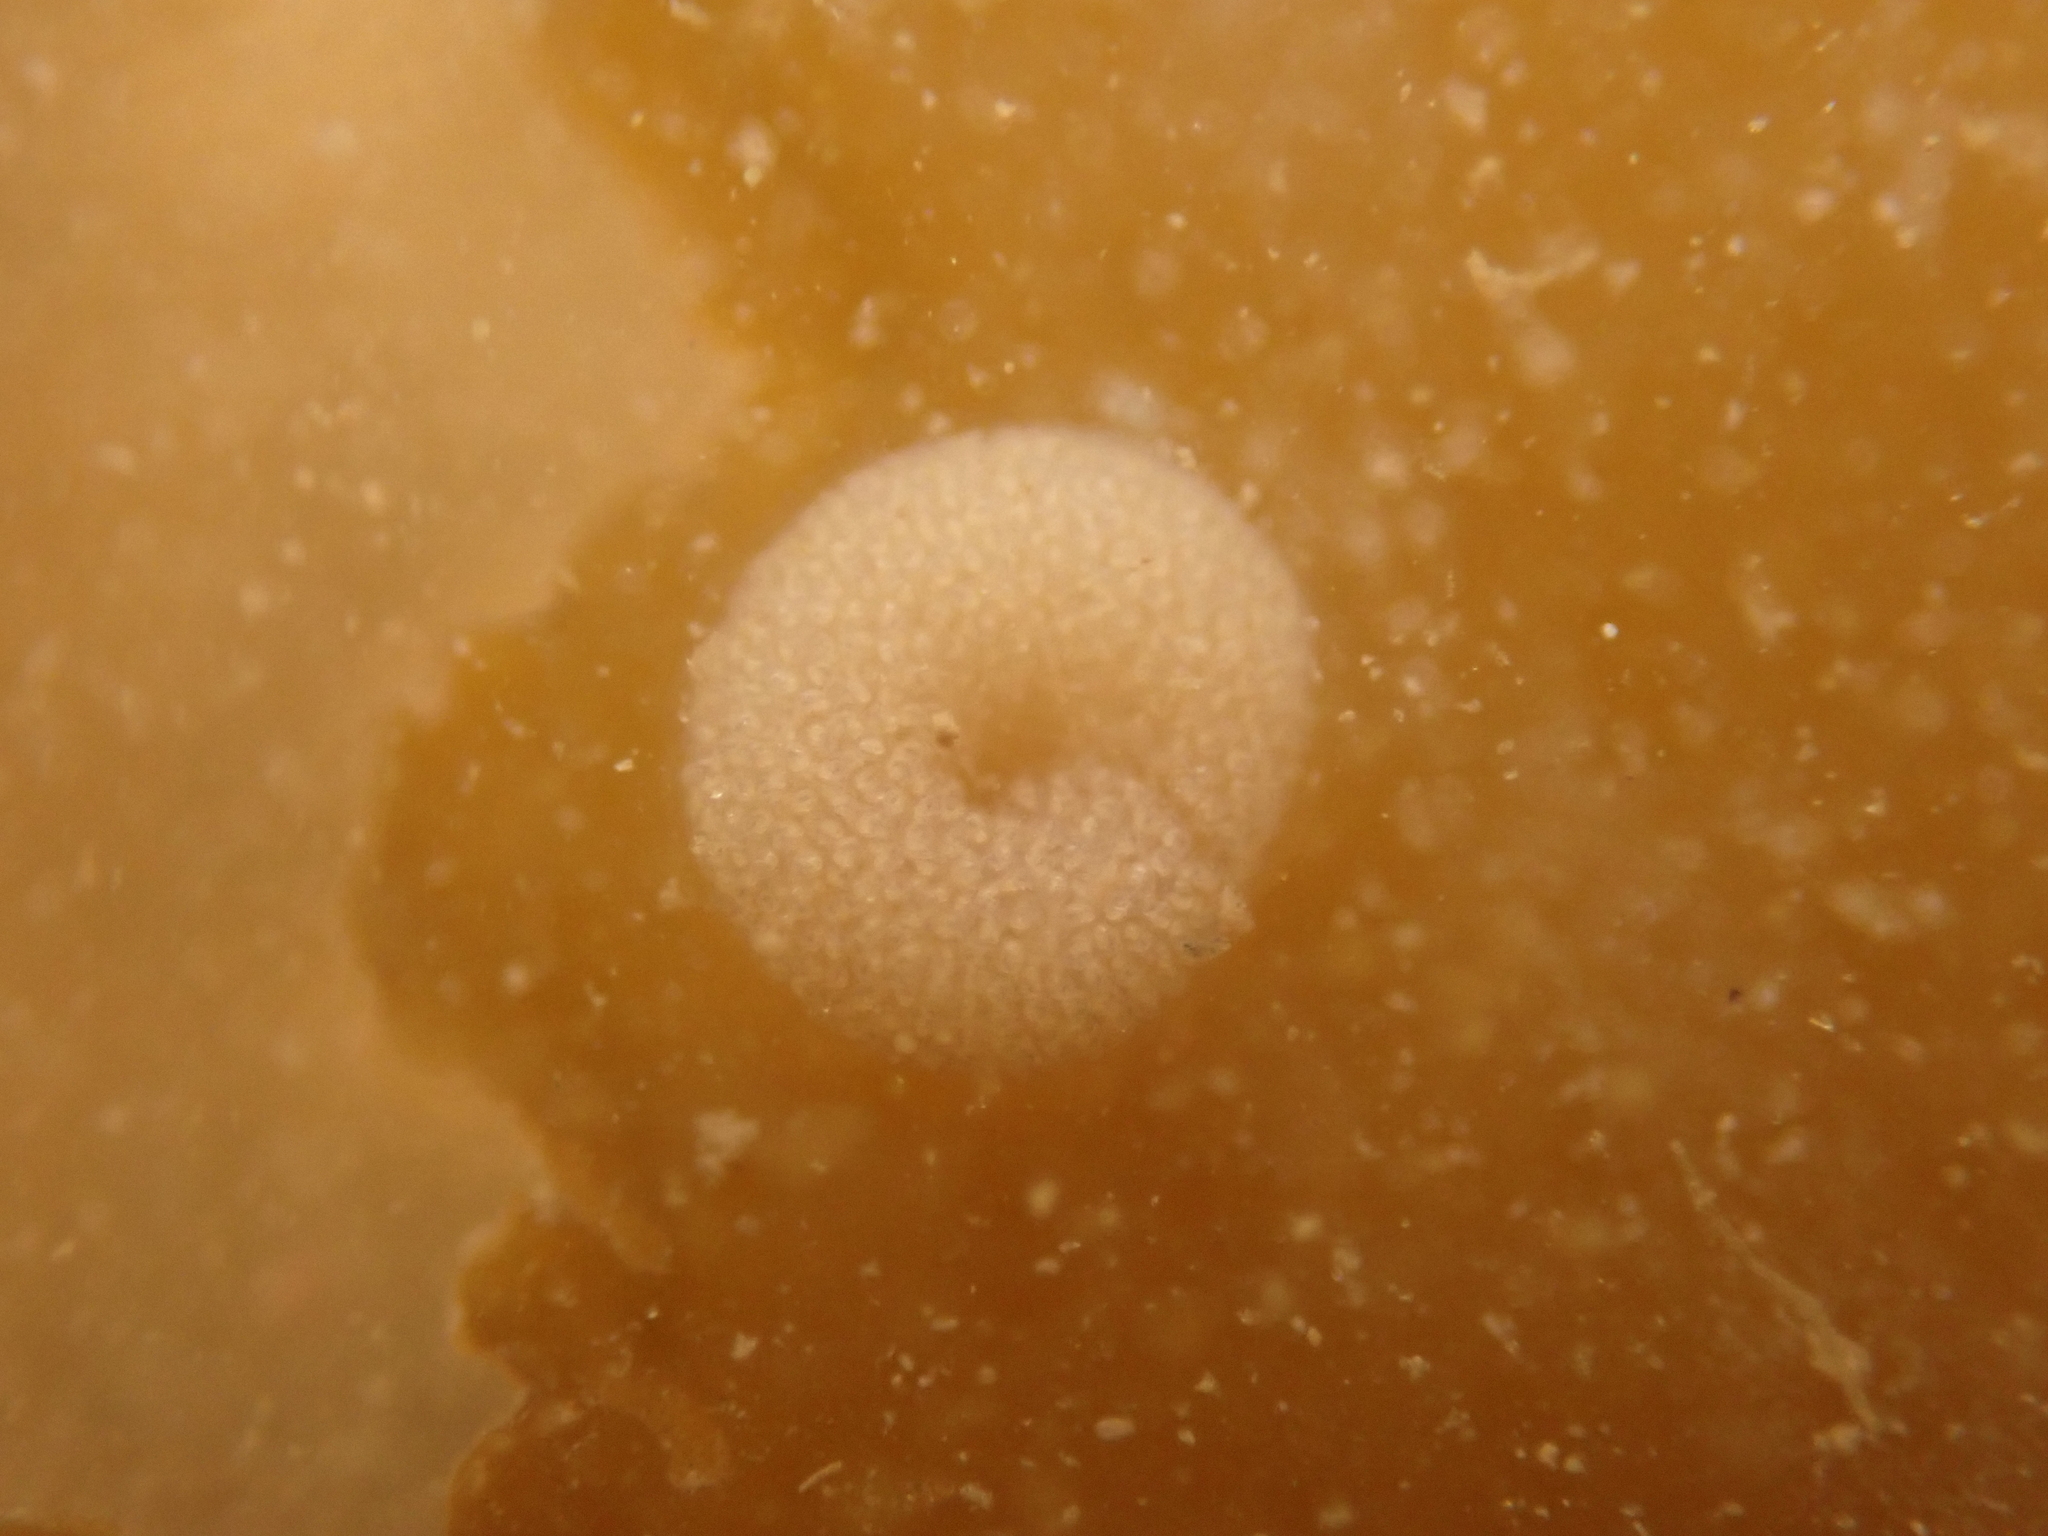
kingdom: Animalia
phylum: Mollusca
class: Gastropoda
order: Littorinimorpha
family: Littorinidae
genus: Lacuna
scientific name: Lacuna vincta
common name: Banded chink shell
